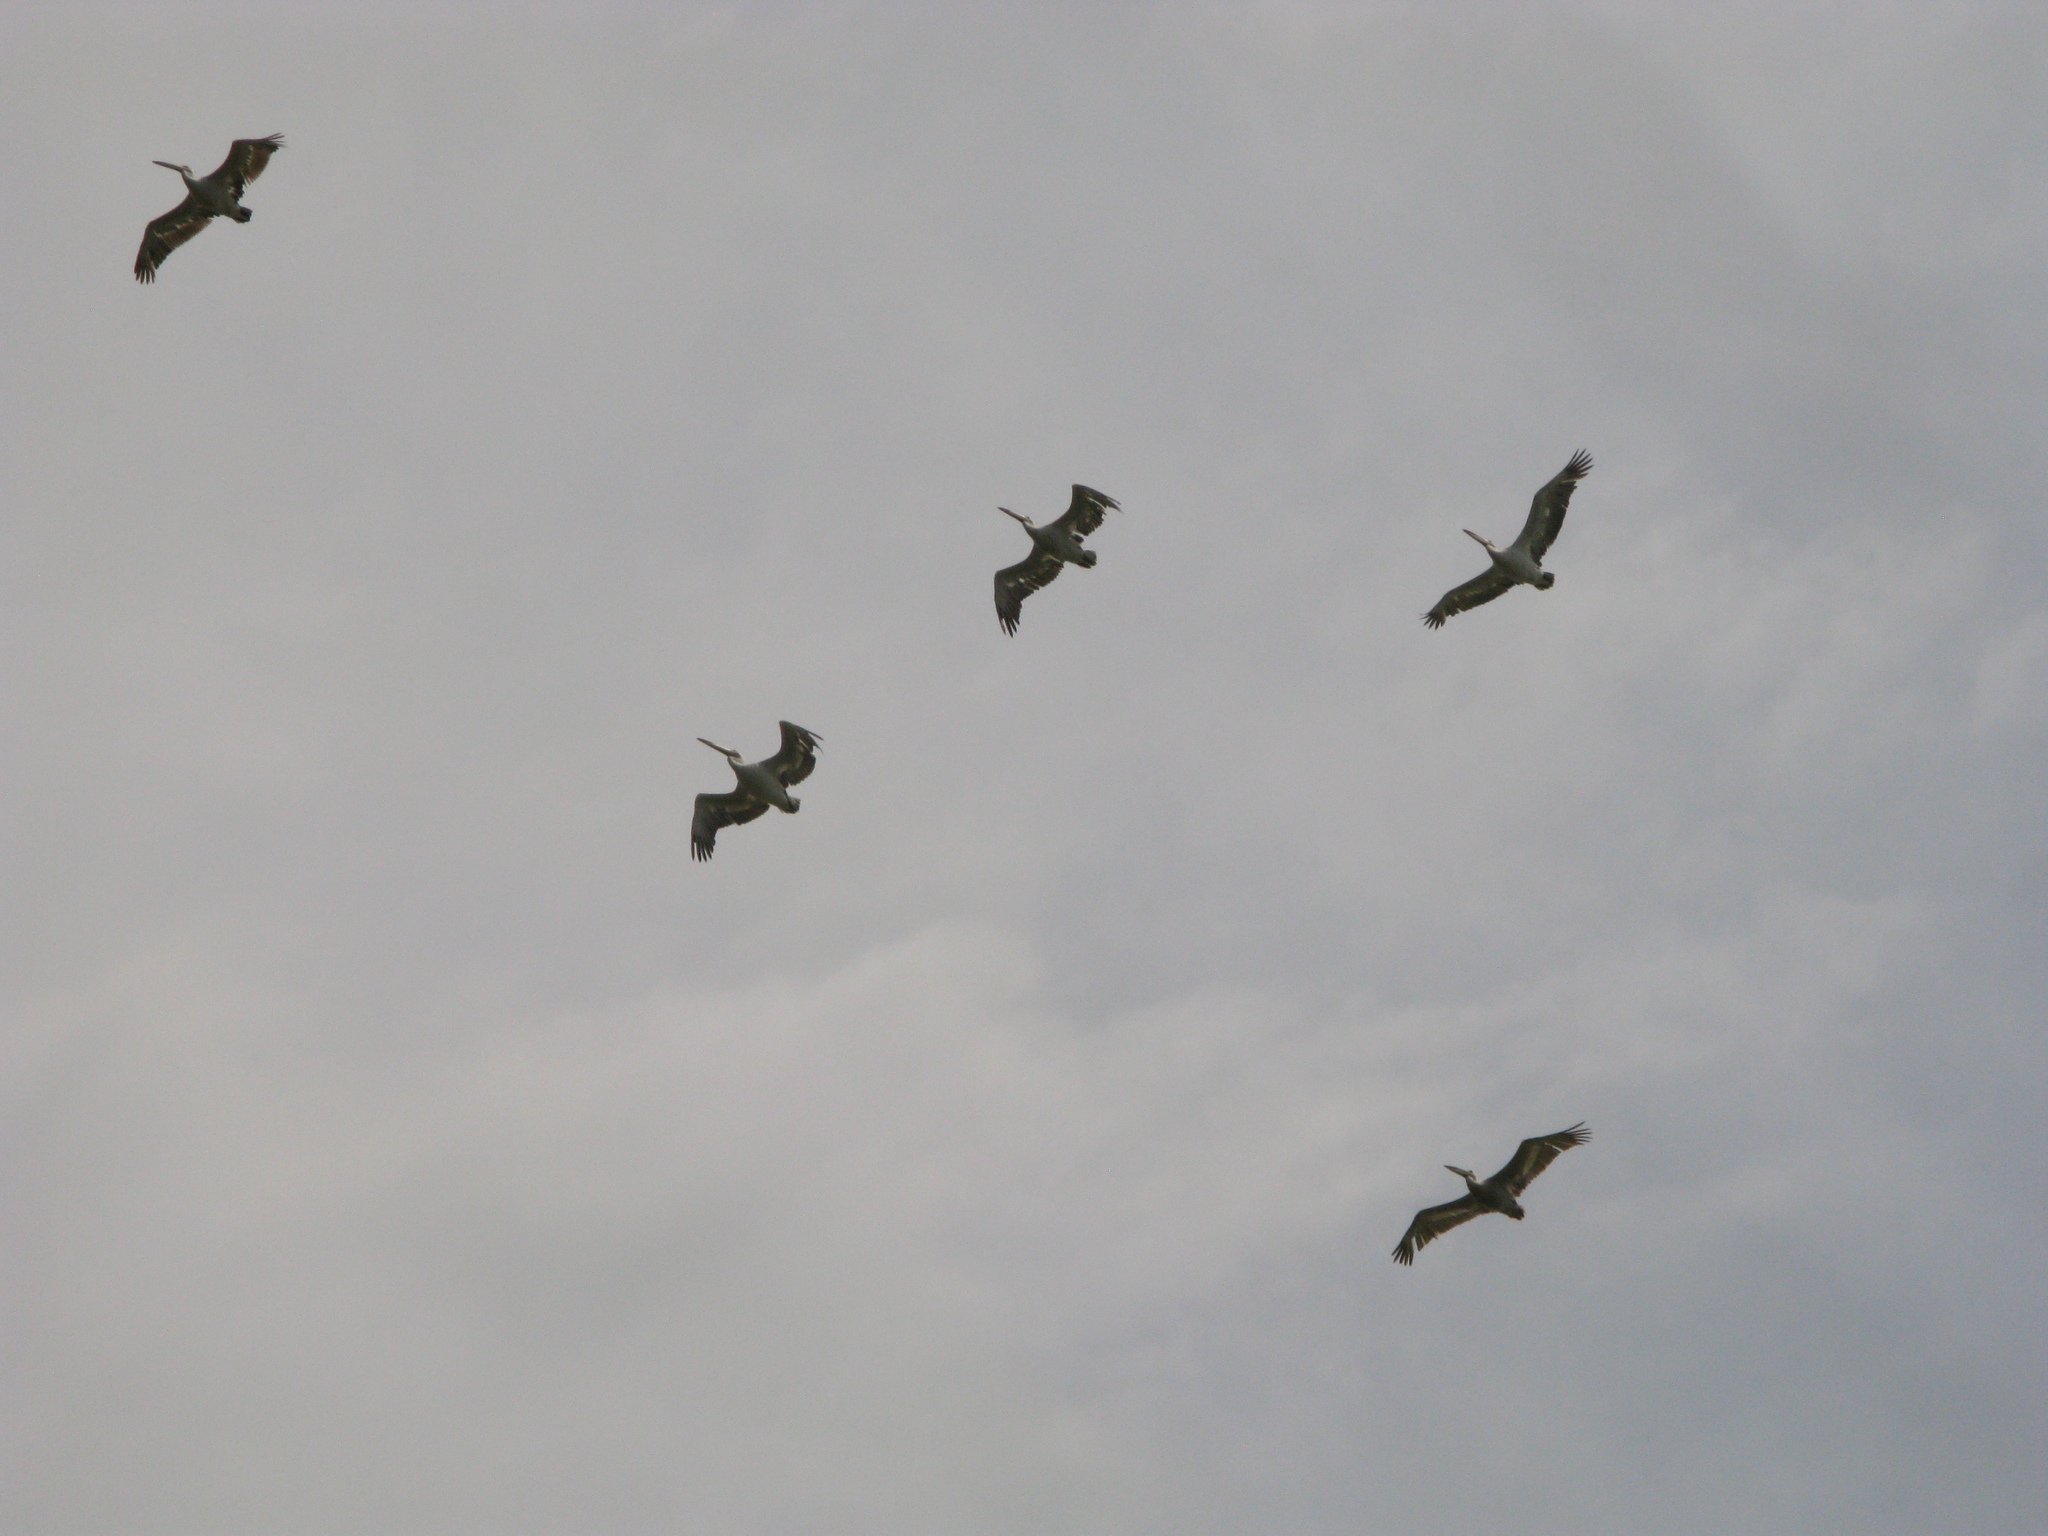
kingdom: Animalia
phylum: Chordata
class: Aves
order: Pelecaniformes
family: Pelecanidae
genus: Pelecanus
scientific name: Pelecanus onocrotalus
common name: Great white pelican
